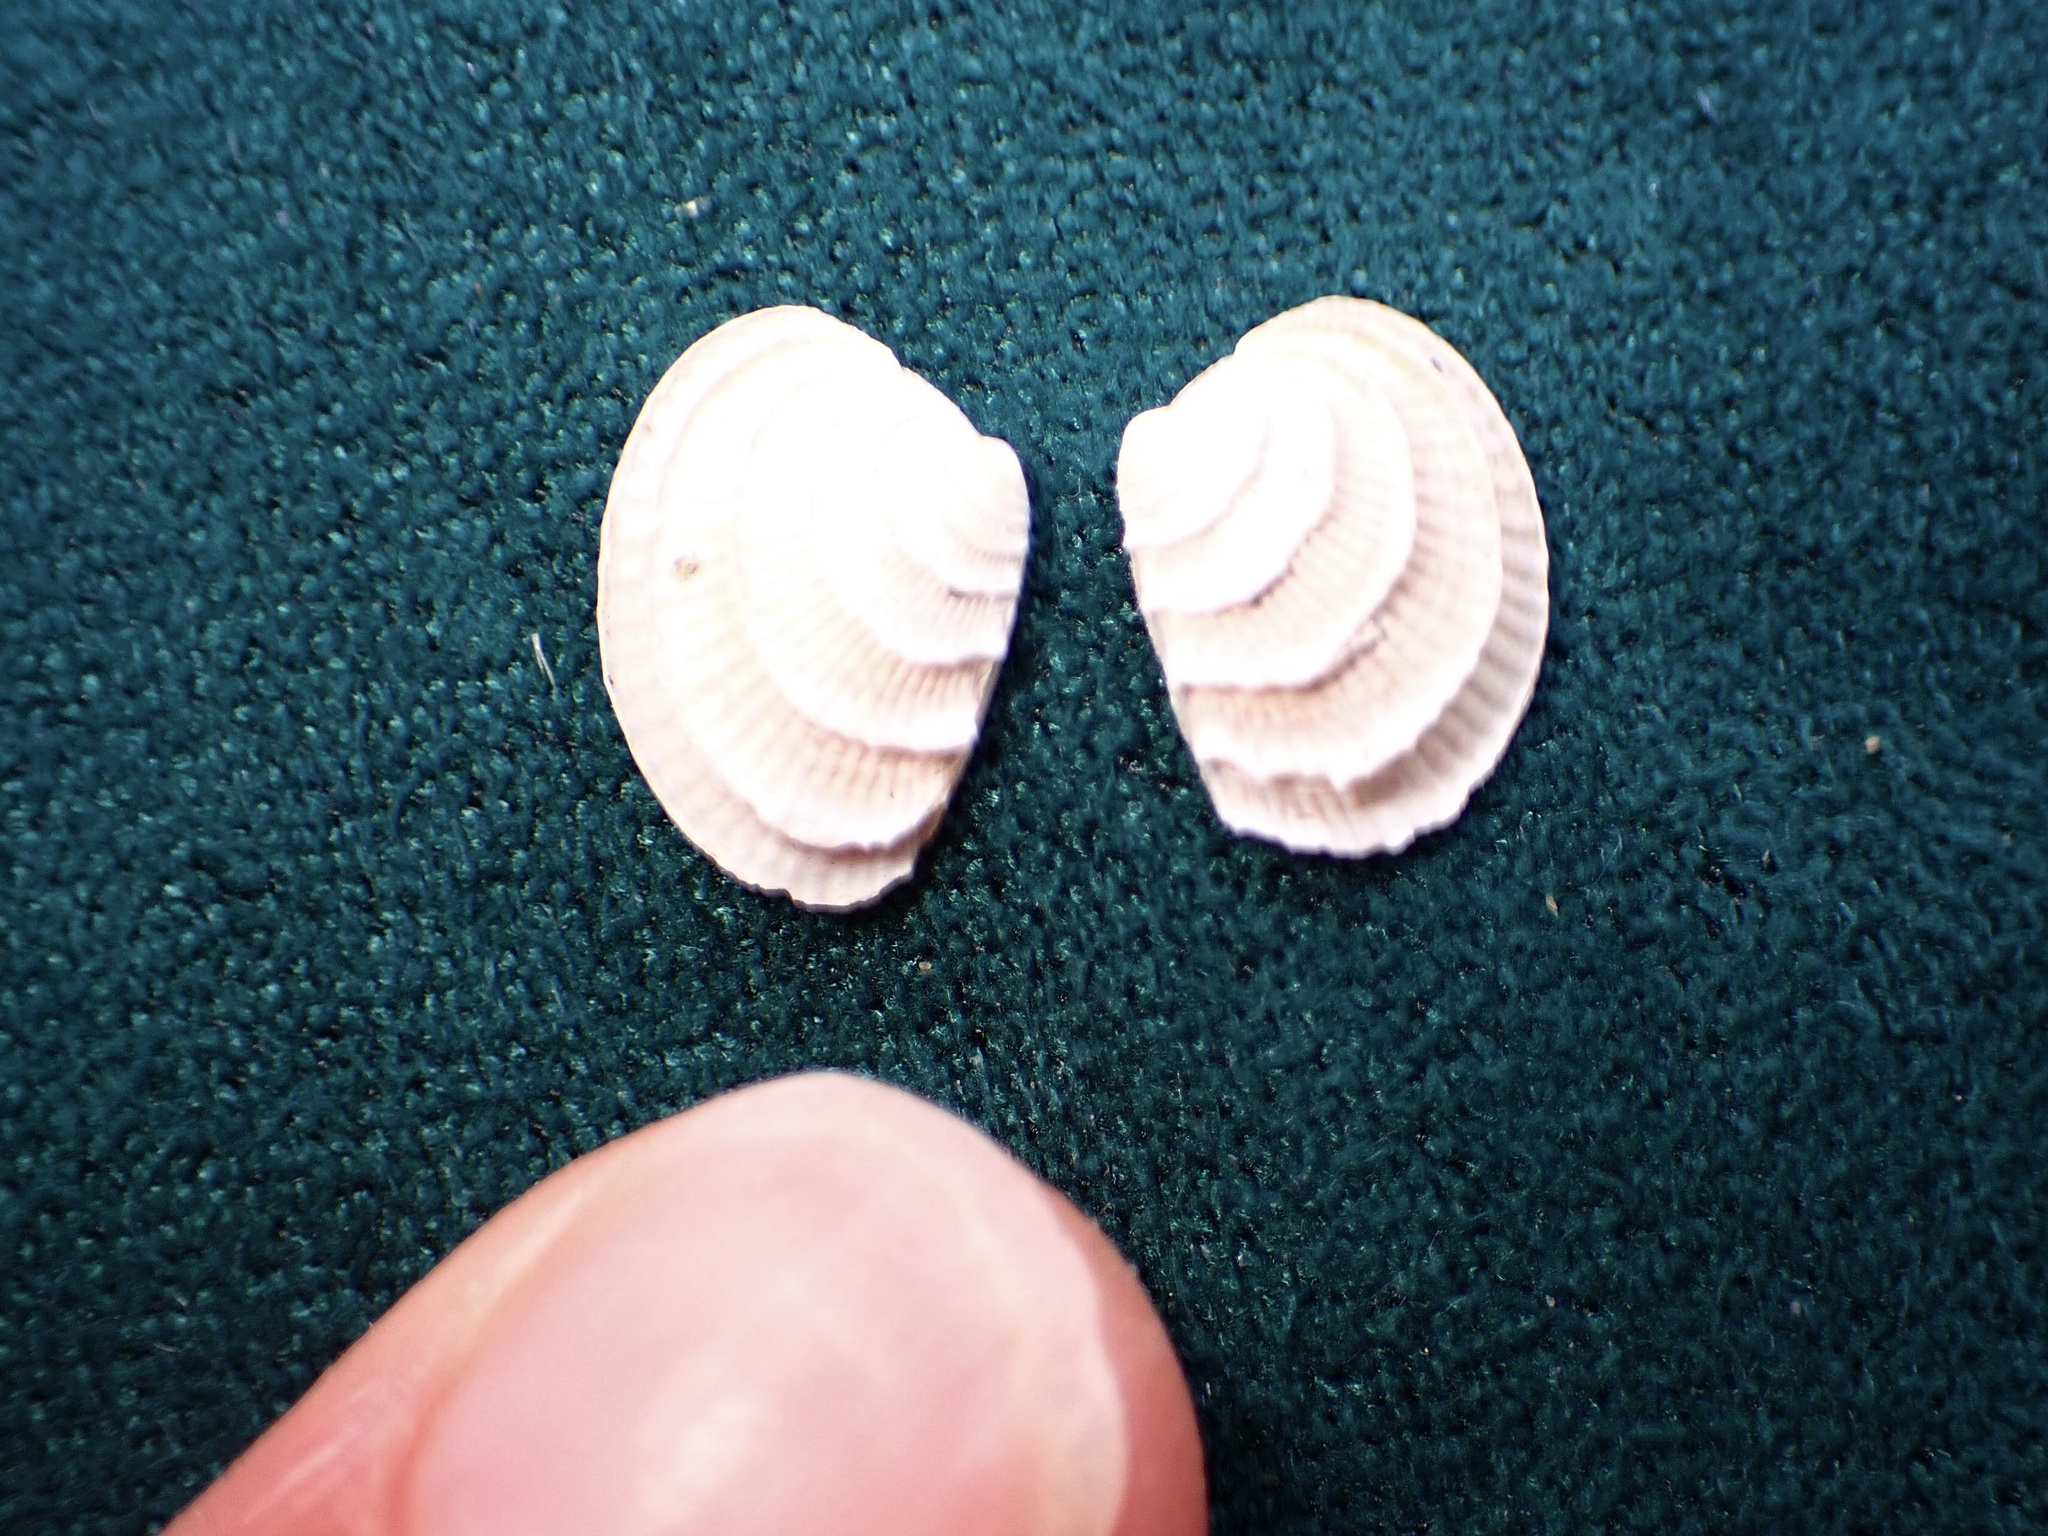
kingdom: Animalia
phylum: Mollusca
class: Bivalvia
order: Venerida
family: Veneridae
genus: Chione
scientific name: Chione californiensis
